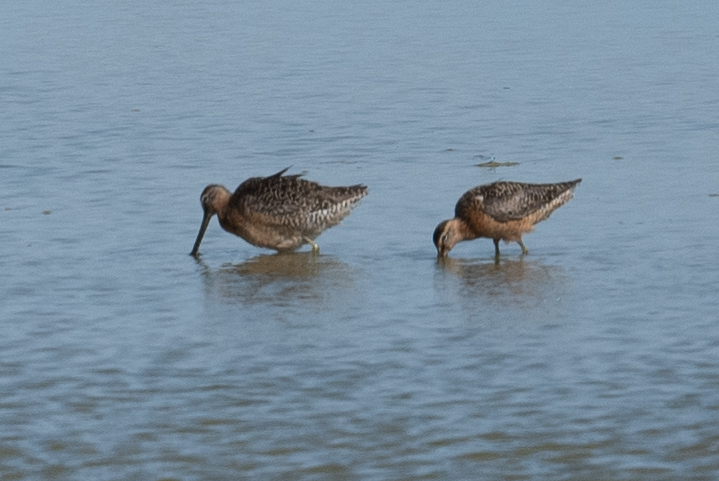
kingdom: Animalia
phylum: Chordata
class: Aves
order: Charadriiformes
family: Scolopacidae
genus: Limnodromus
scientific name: Limnodromus scolopaceus
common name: Long-billed dowitcher
